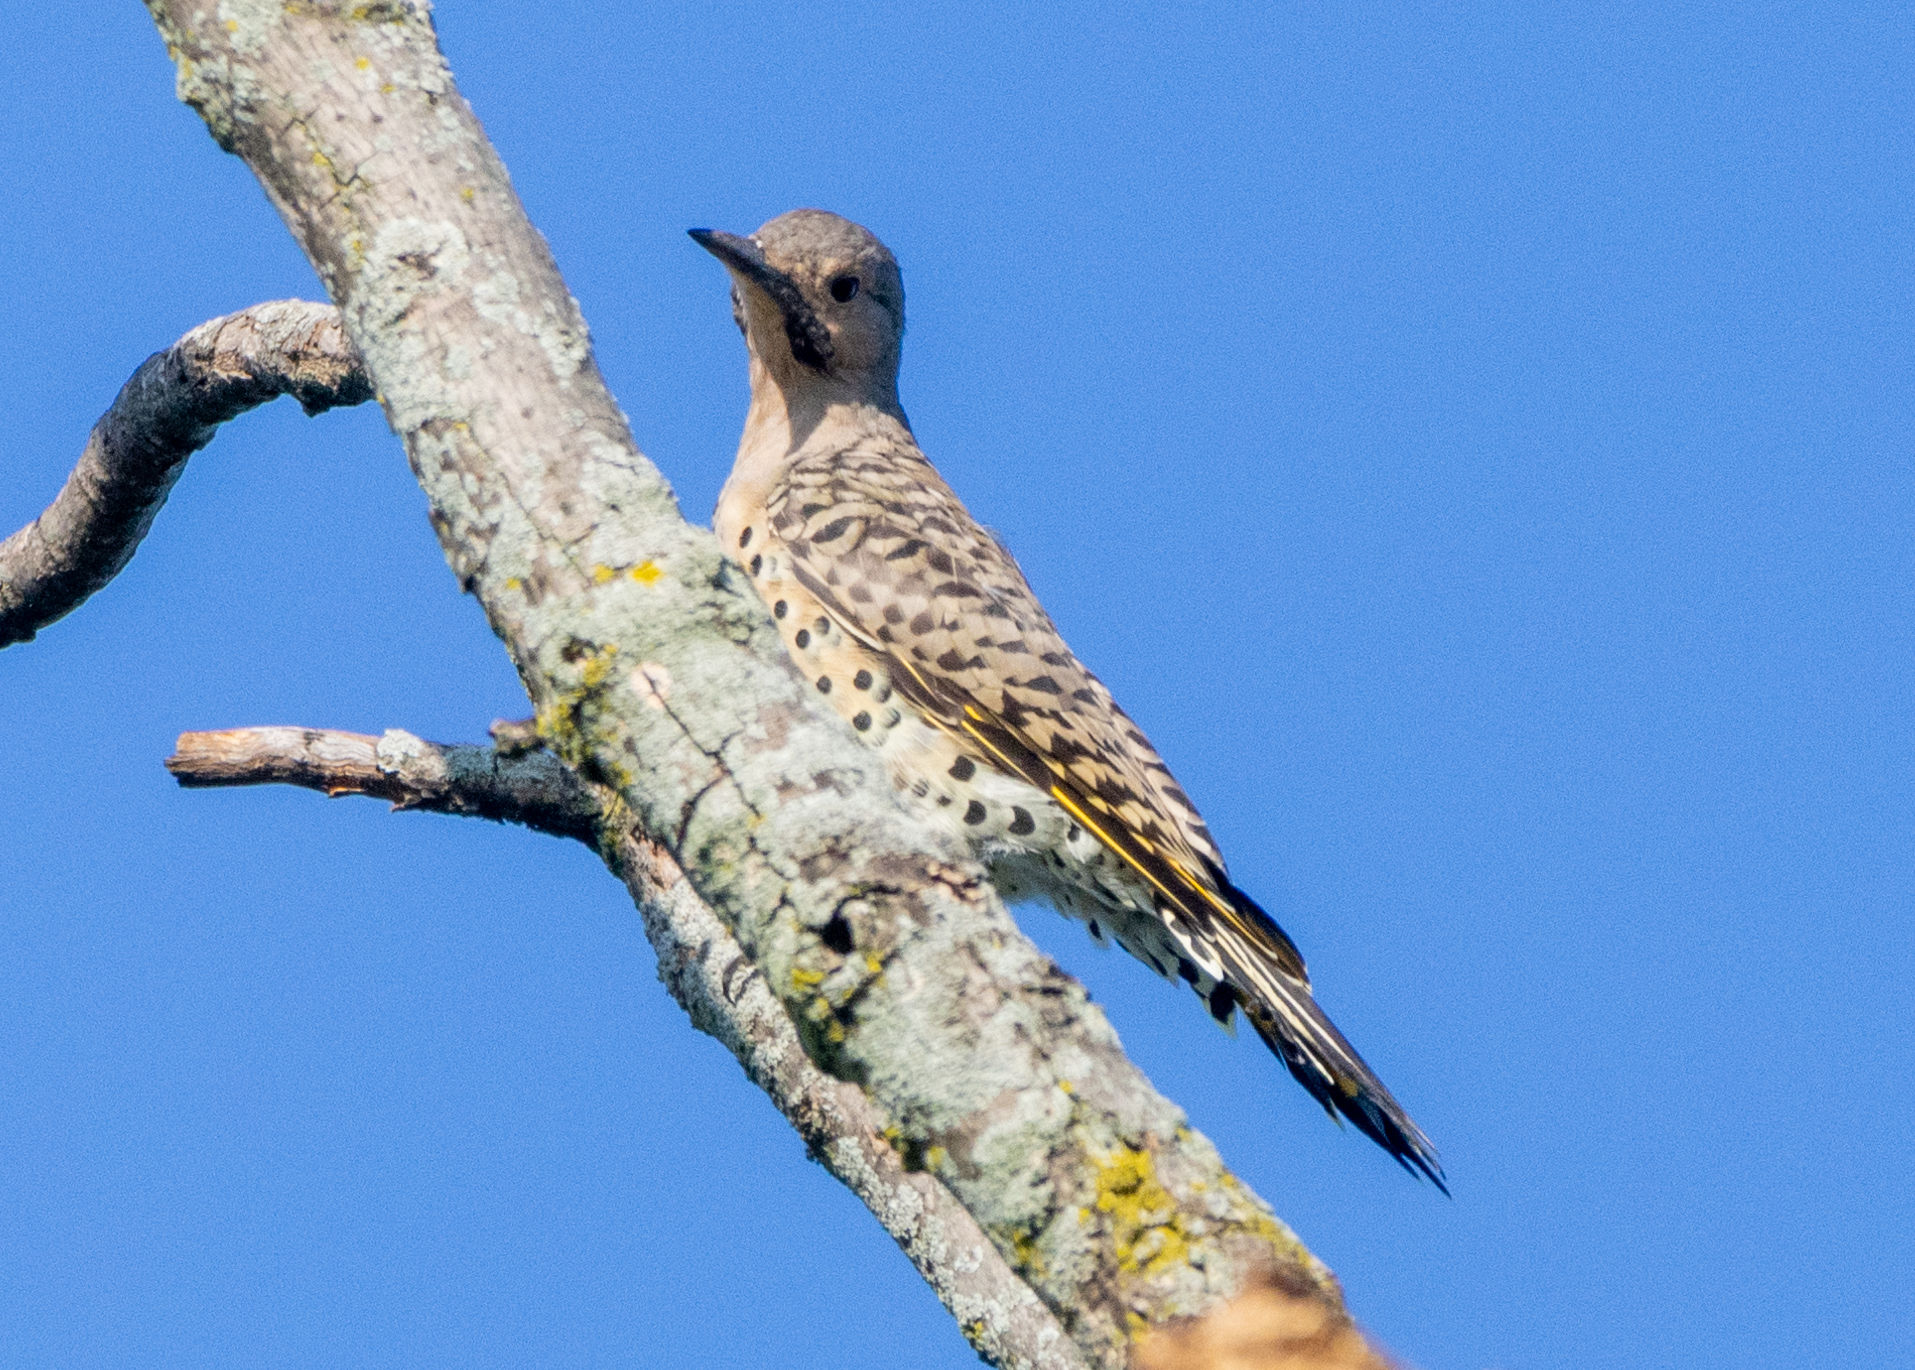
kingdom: Animalia
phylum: Chordata
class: Aves
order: Piciformes
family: Picidae
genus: Colaptes
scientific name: Colaptes auratus
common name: Northern flicker
